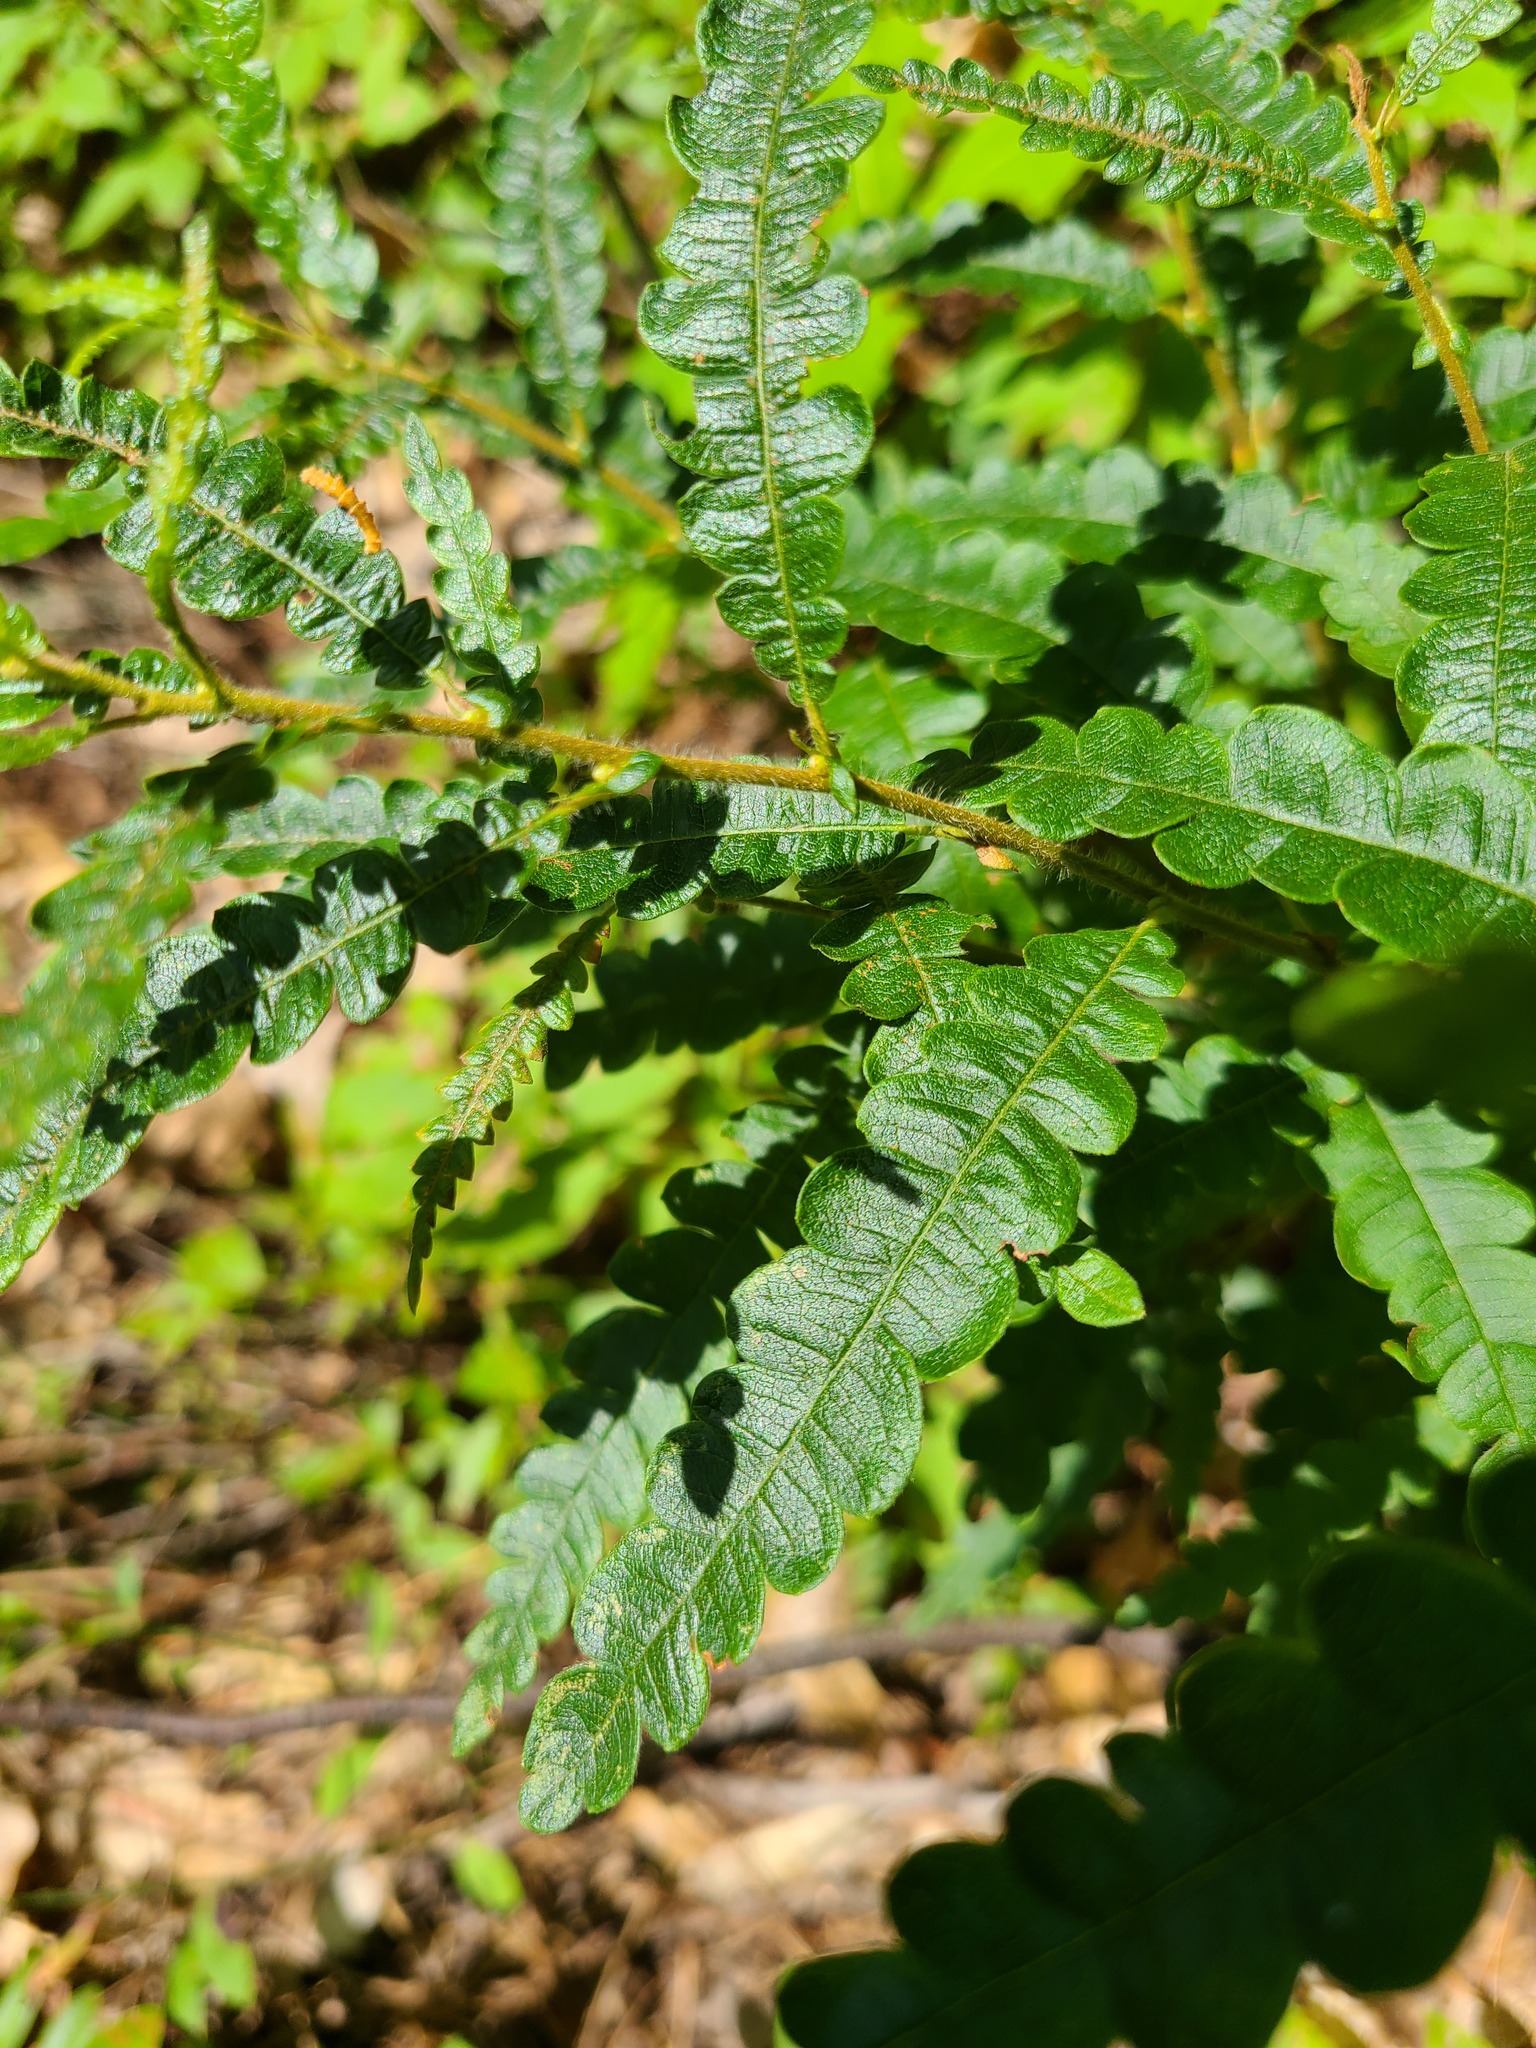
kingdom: Plantae
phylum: Tracheophyta
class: Magnoliopsida
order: Fagales
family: Myricaceae
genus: Comptonia
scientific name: Comptonia peregrina
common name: Sweet-fern
